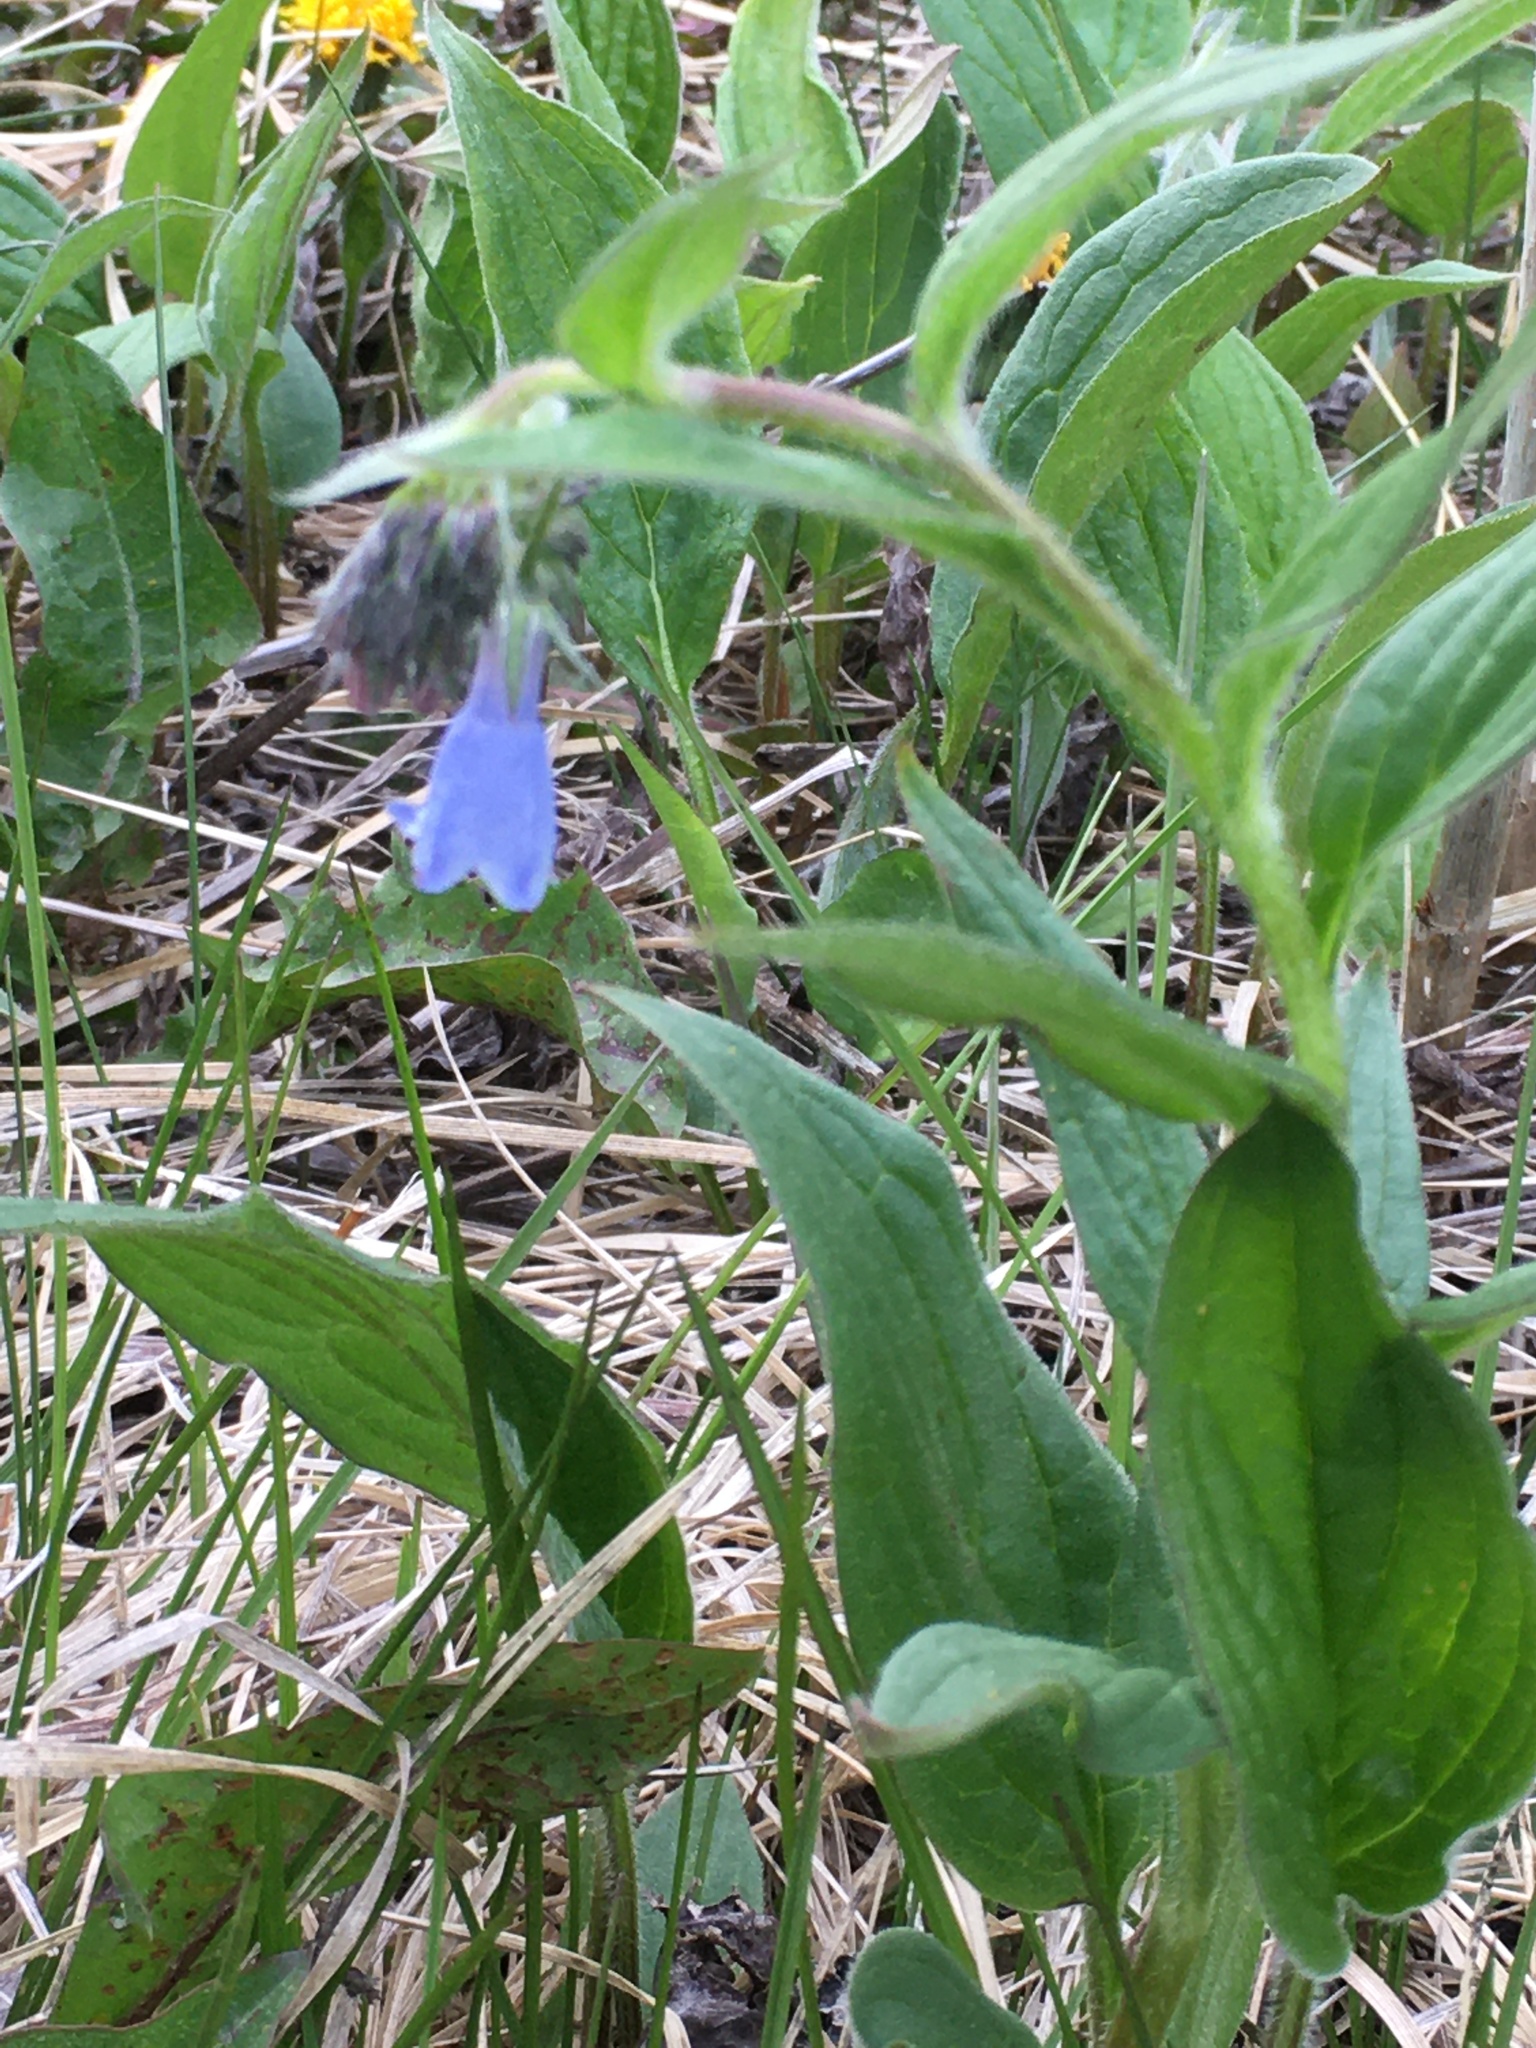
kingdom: Plantae
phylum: Tracheophyta
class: Magnoliopsida
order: Boraginales
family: Boraginaceae
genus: Mertensia
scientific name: Mertensia paniculata
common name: Panicled bluebells
